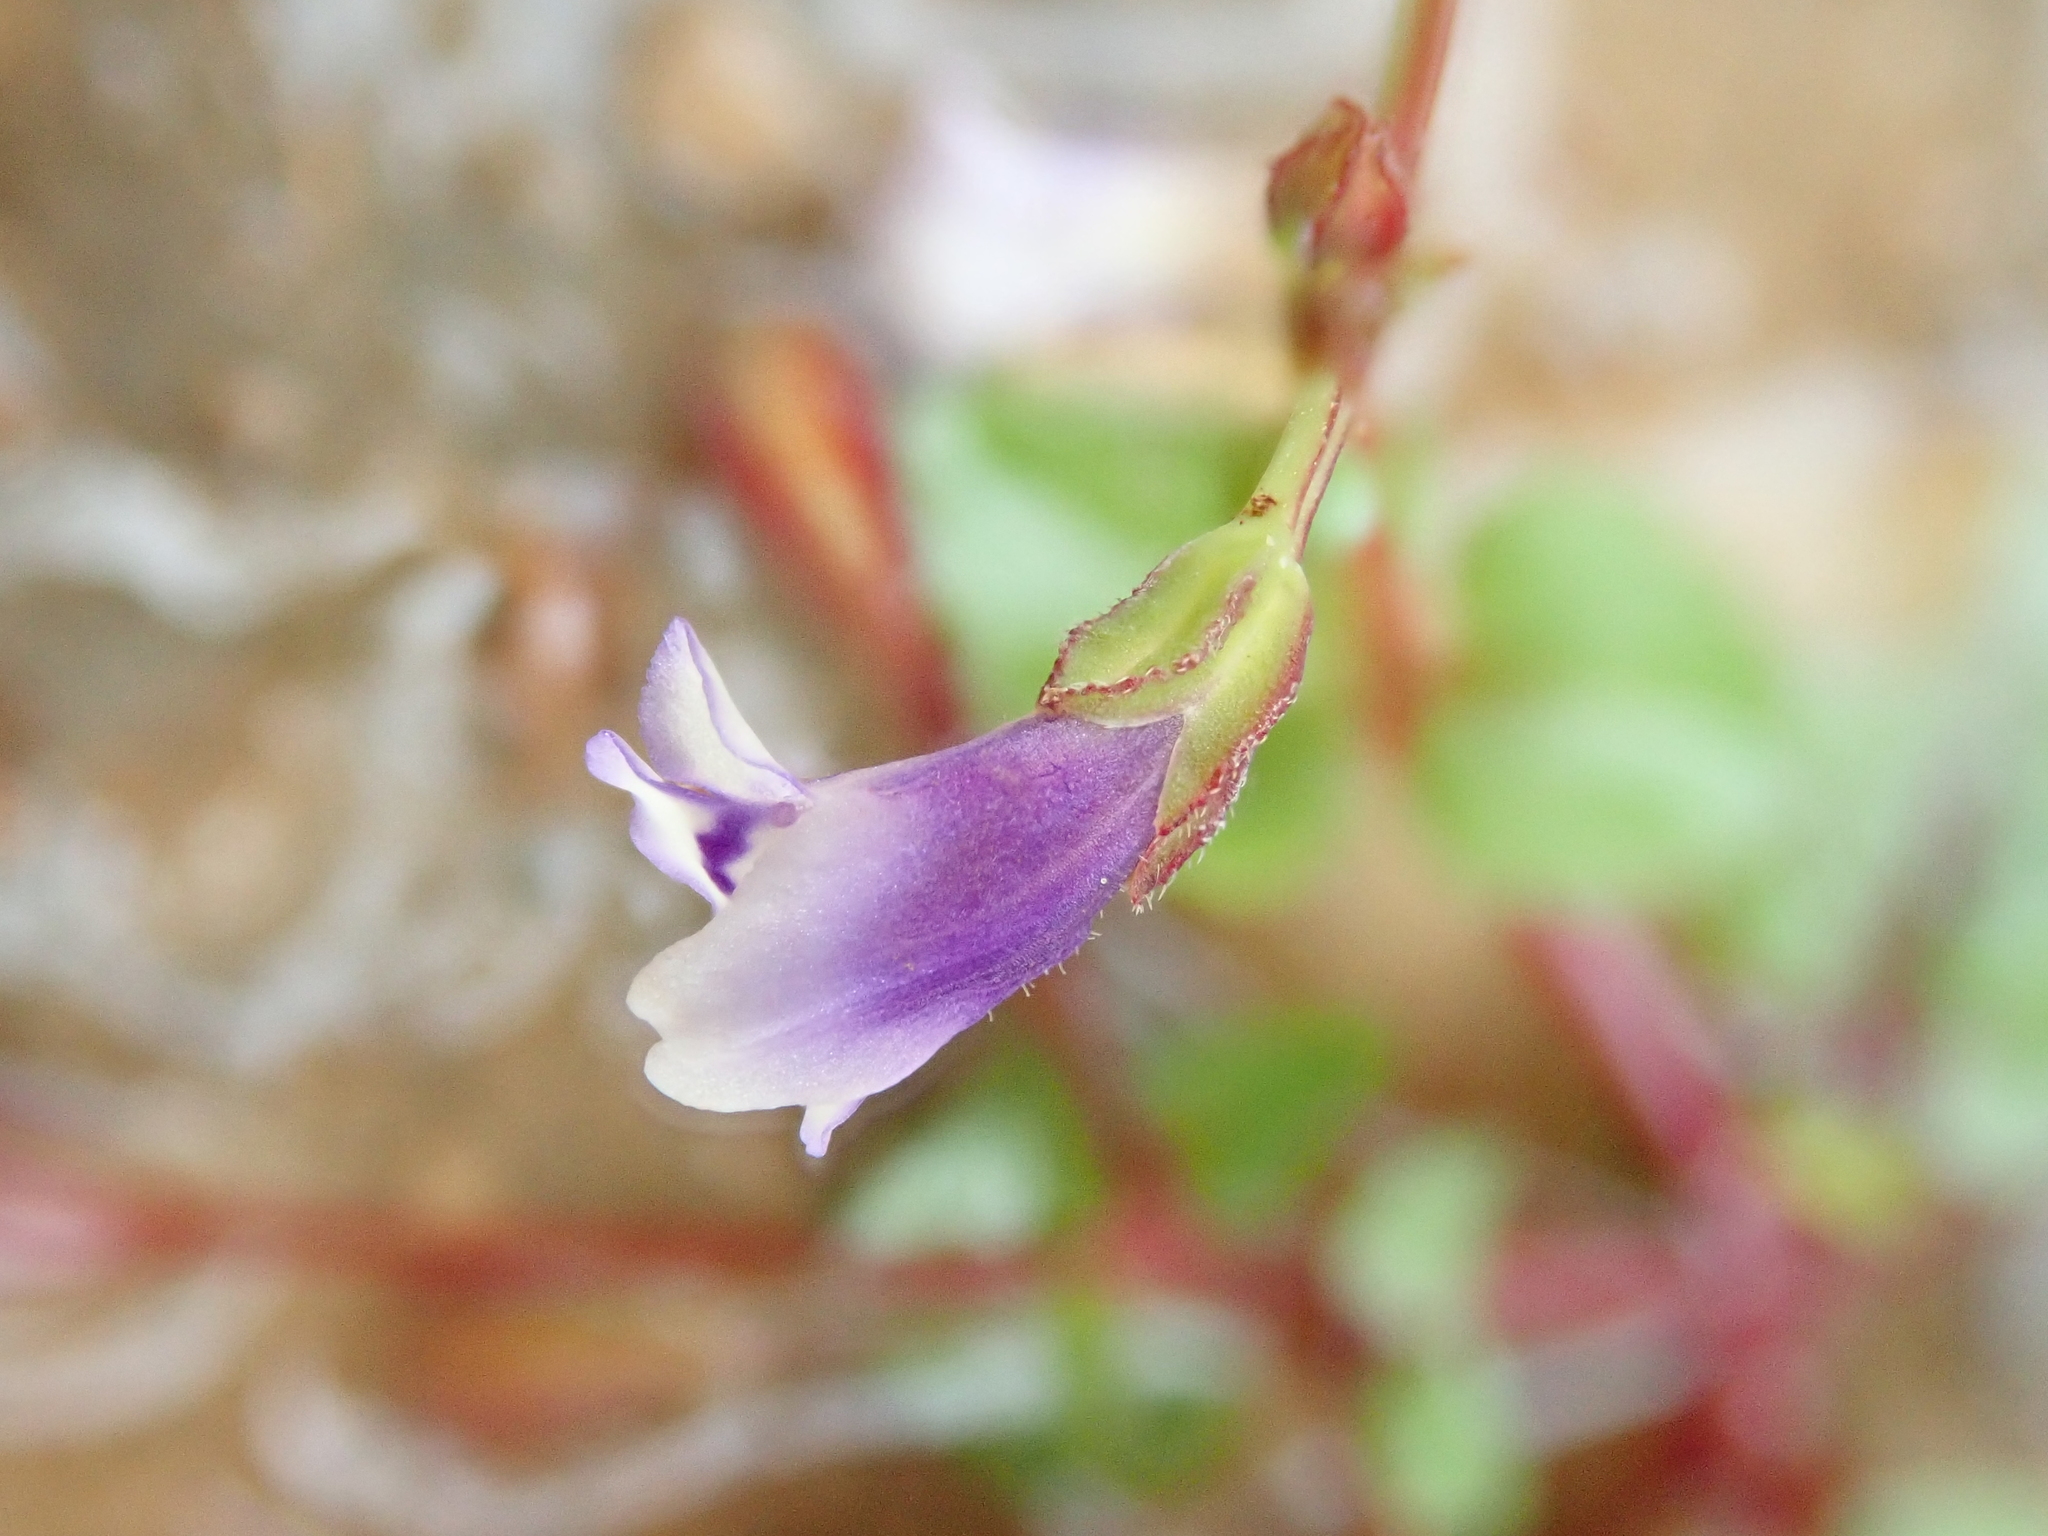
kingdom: Plantae
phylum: Tracheophyta
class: Magnoliopsida
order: Lamiales
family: Linderniaceae
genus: Torenia
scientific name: Torenia crustacea
